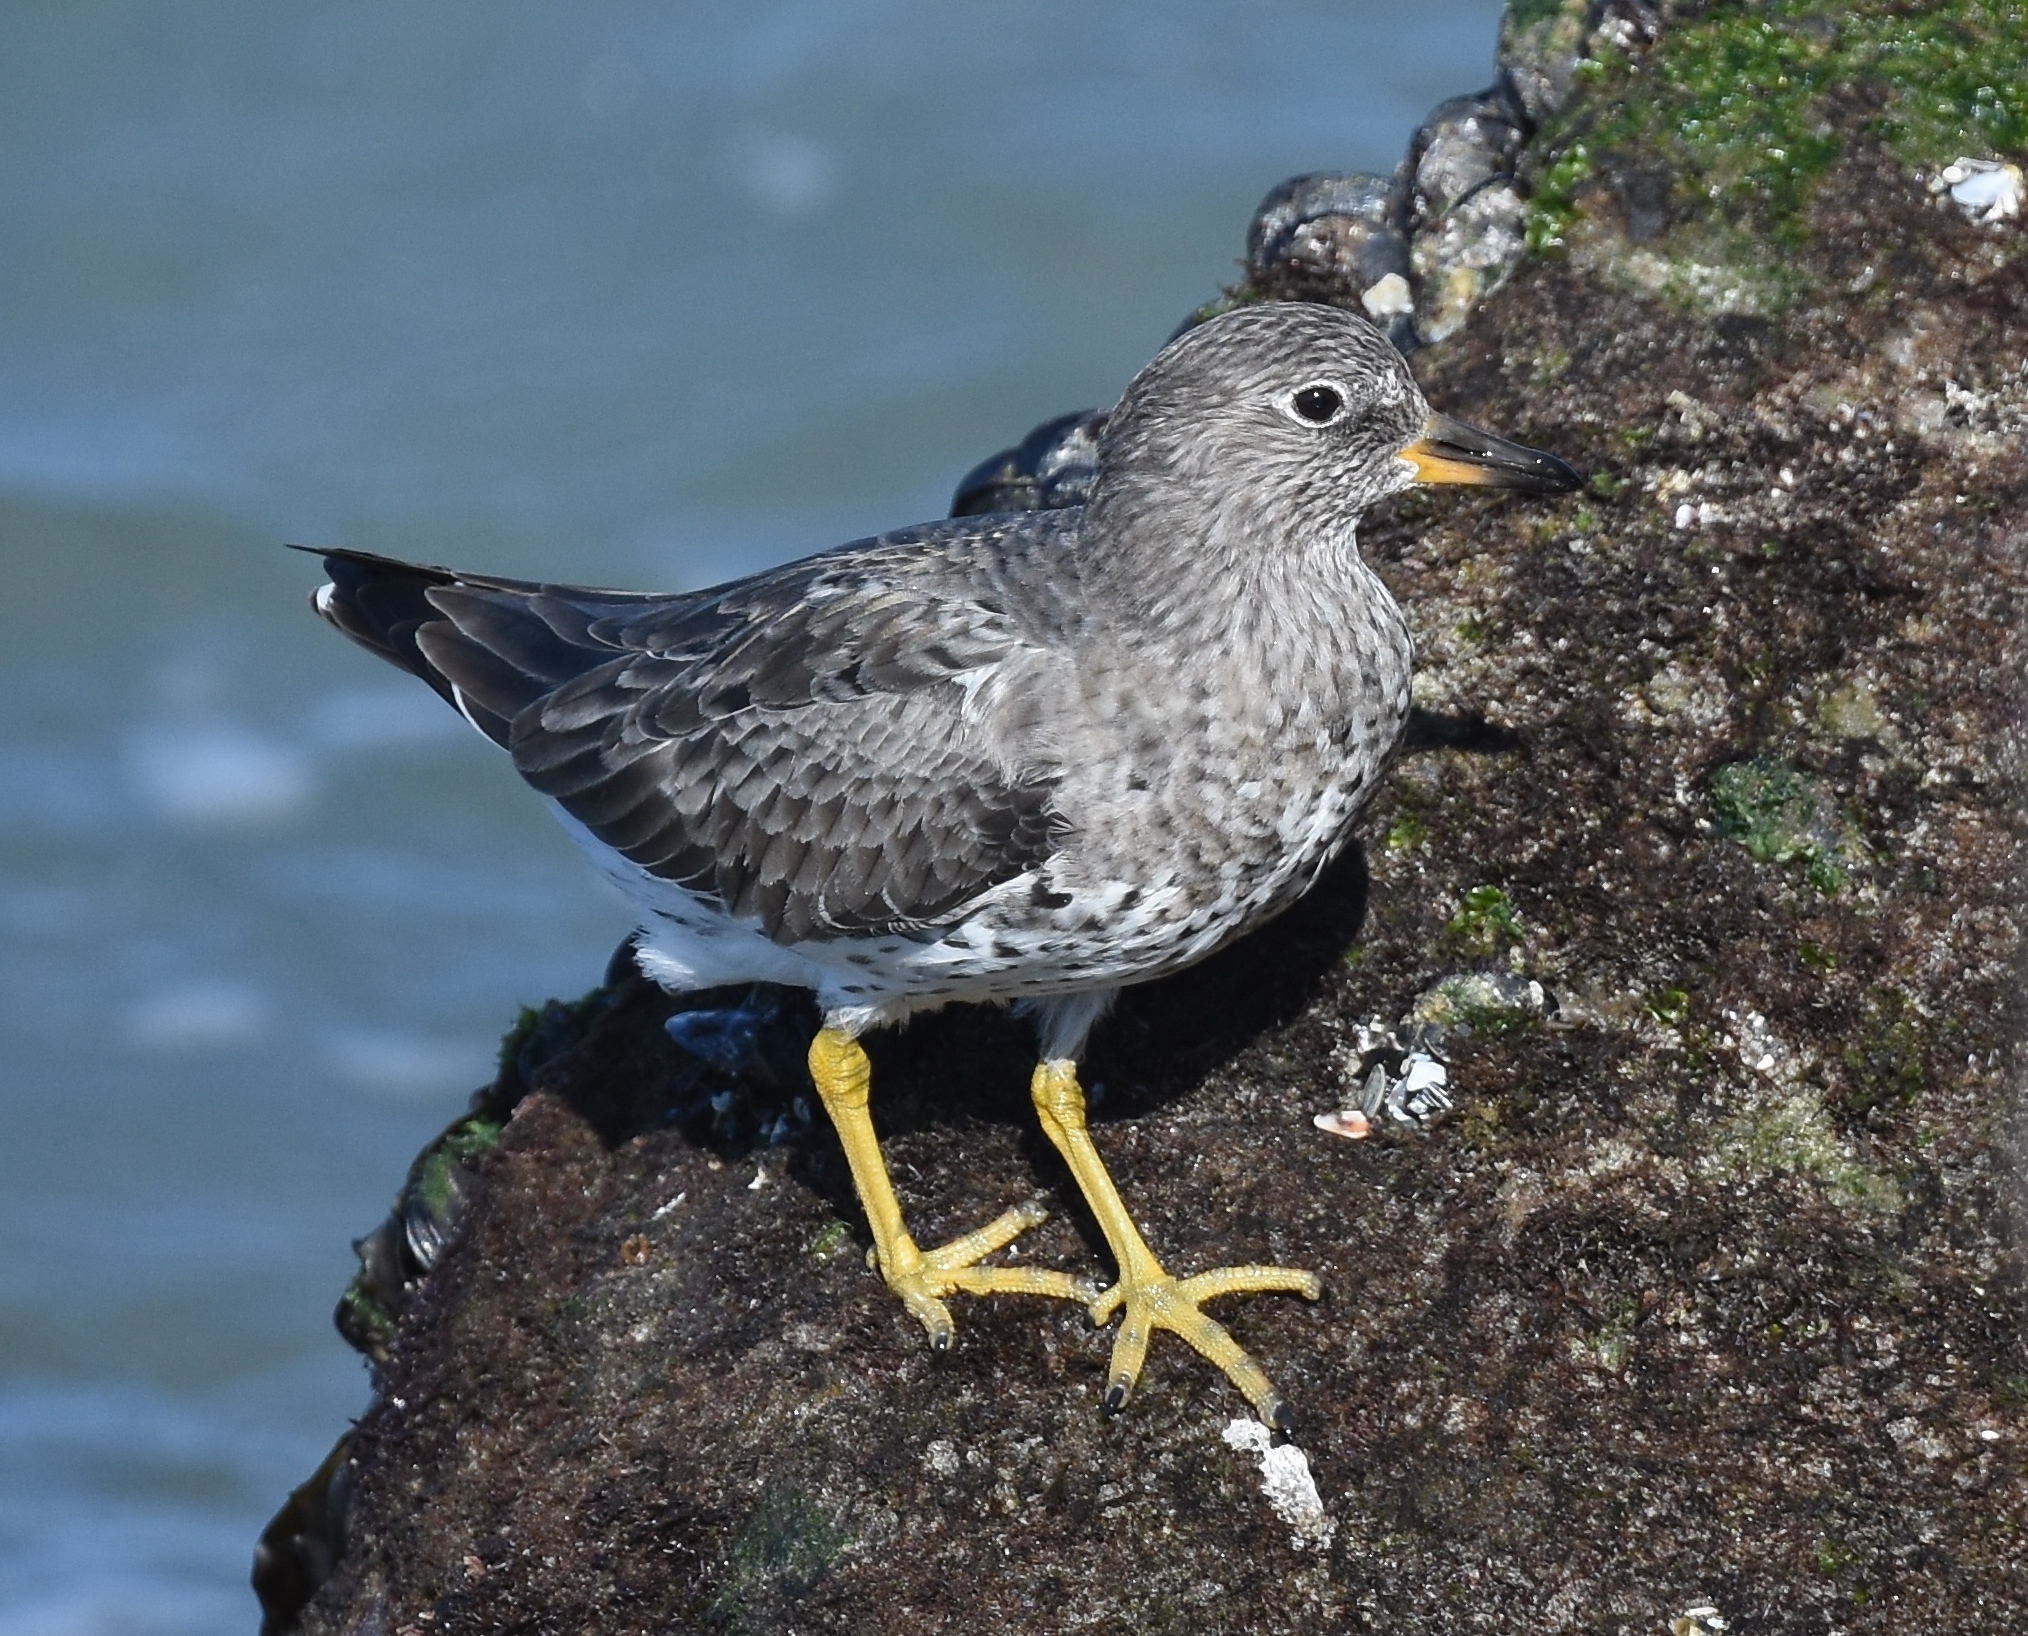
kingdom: Animalia
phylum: Chordata
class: Aves
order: Charadriiformes
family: Scolopacidae
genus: Calidris
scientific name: Calidris virgata
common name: Surfbird
